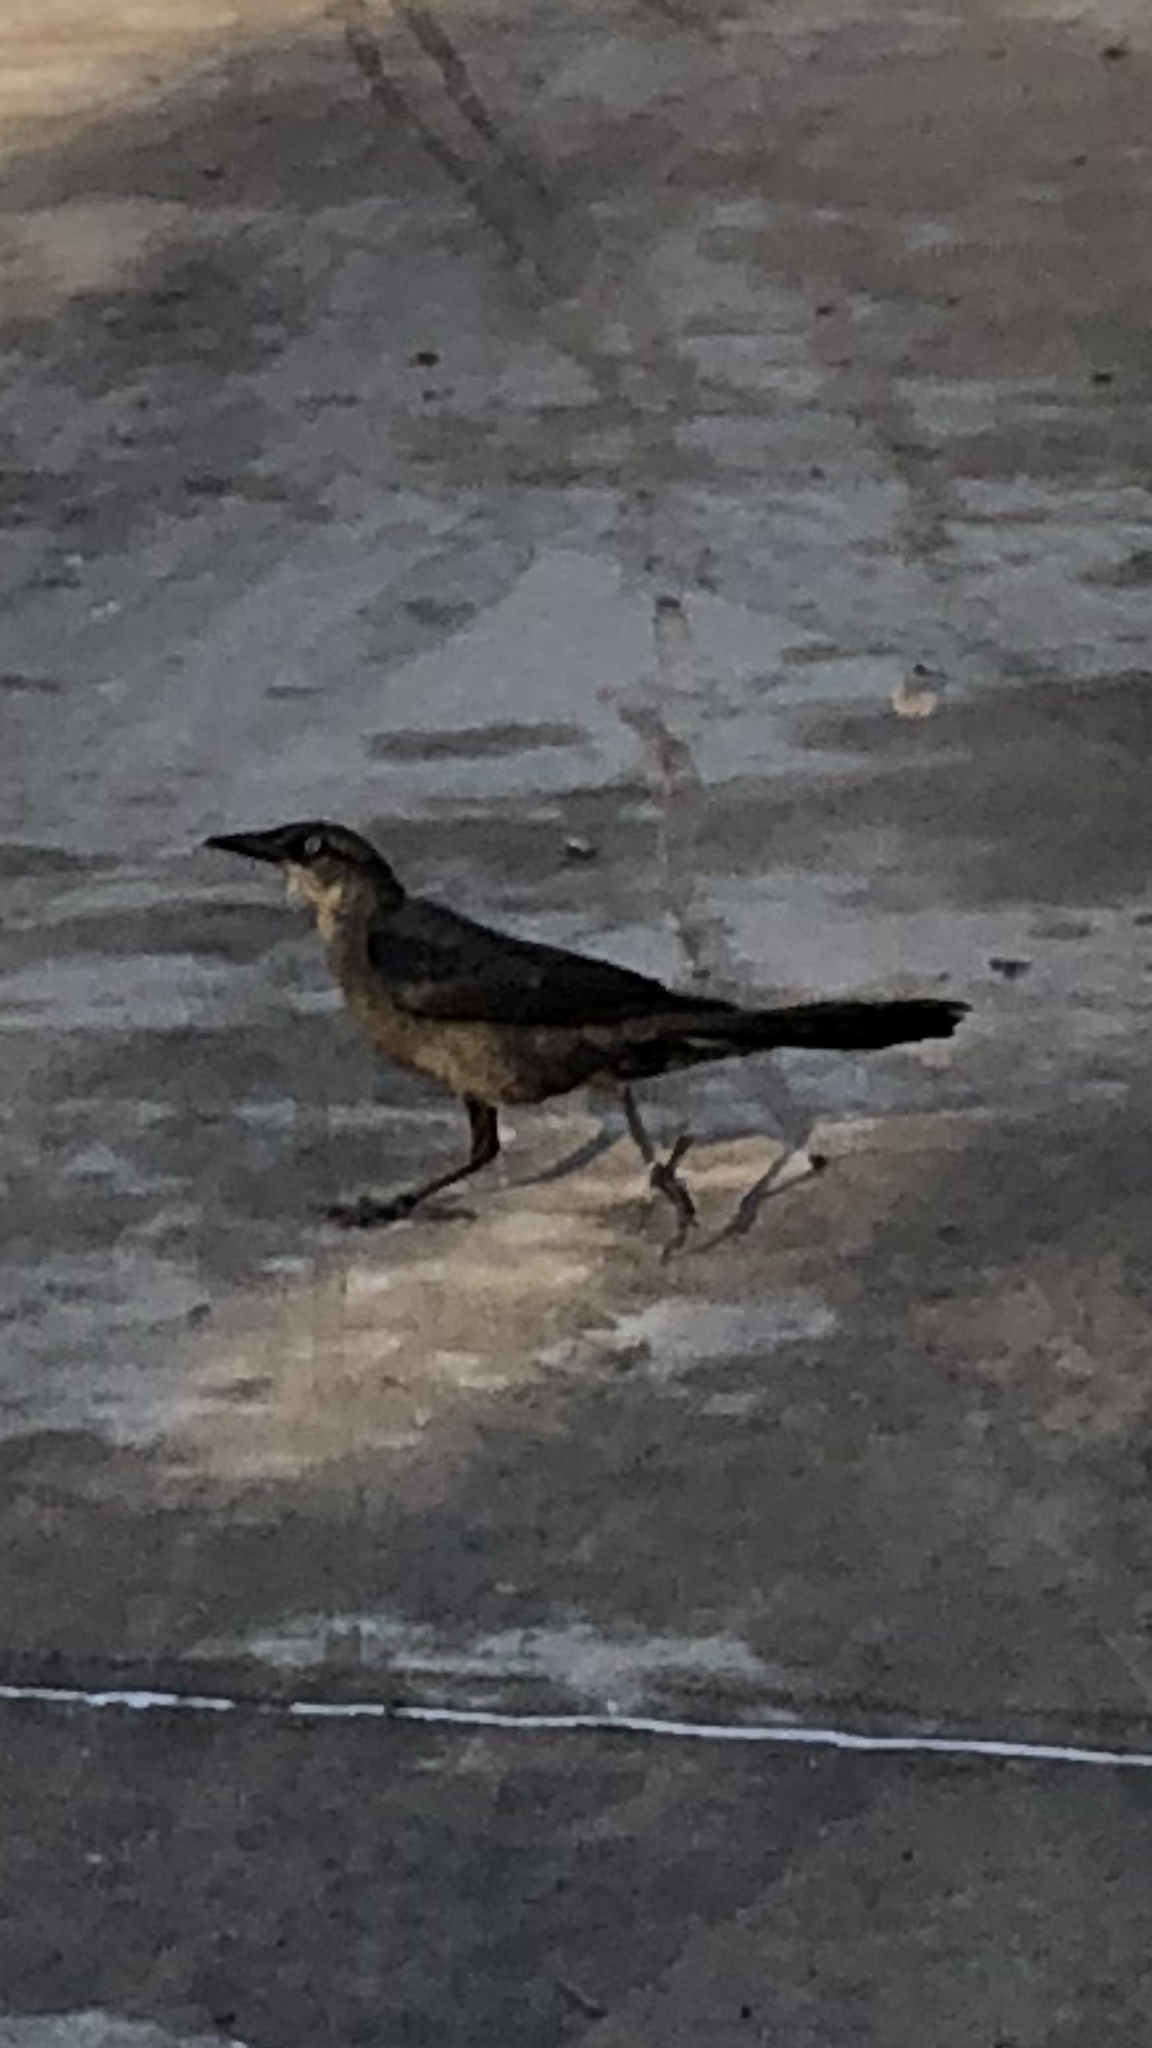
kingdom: Animalia
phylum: Chordata
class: Aves
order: Passeriformes
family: Icteridae
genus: Quiscalus
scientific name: Quiscalus mexicanus
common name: Great-tailed grackle
